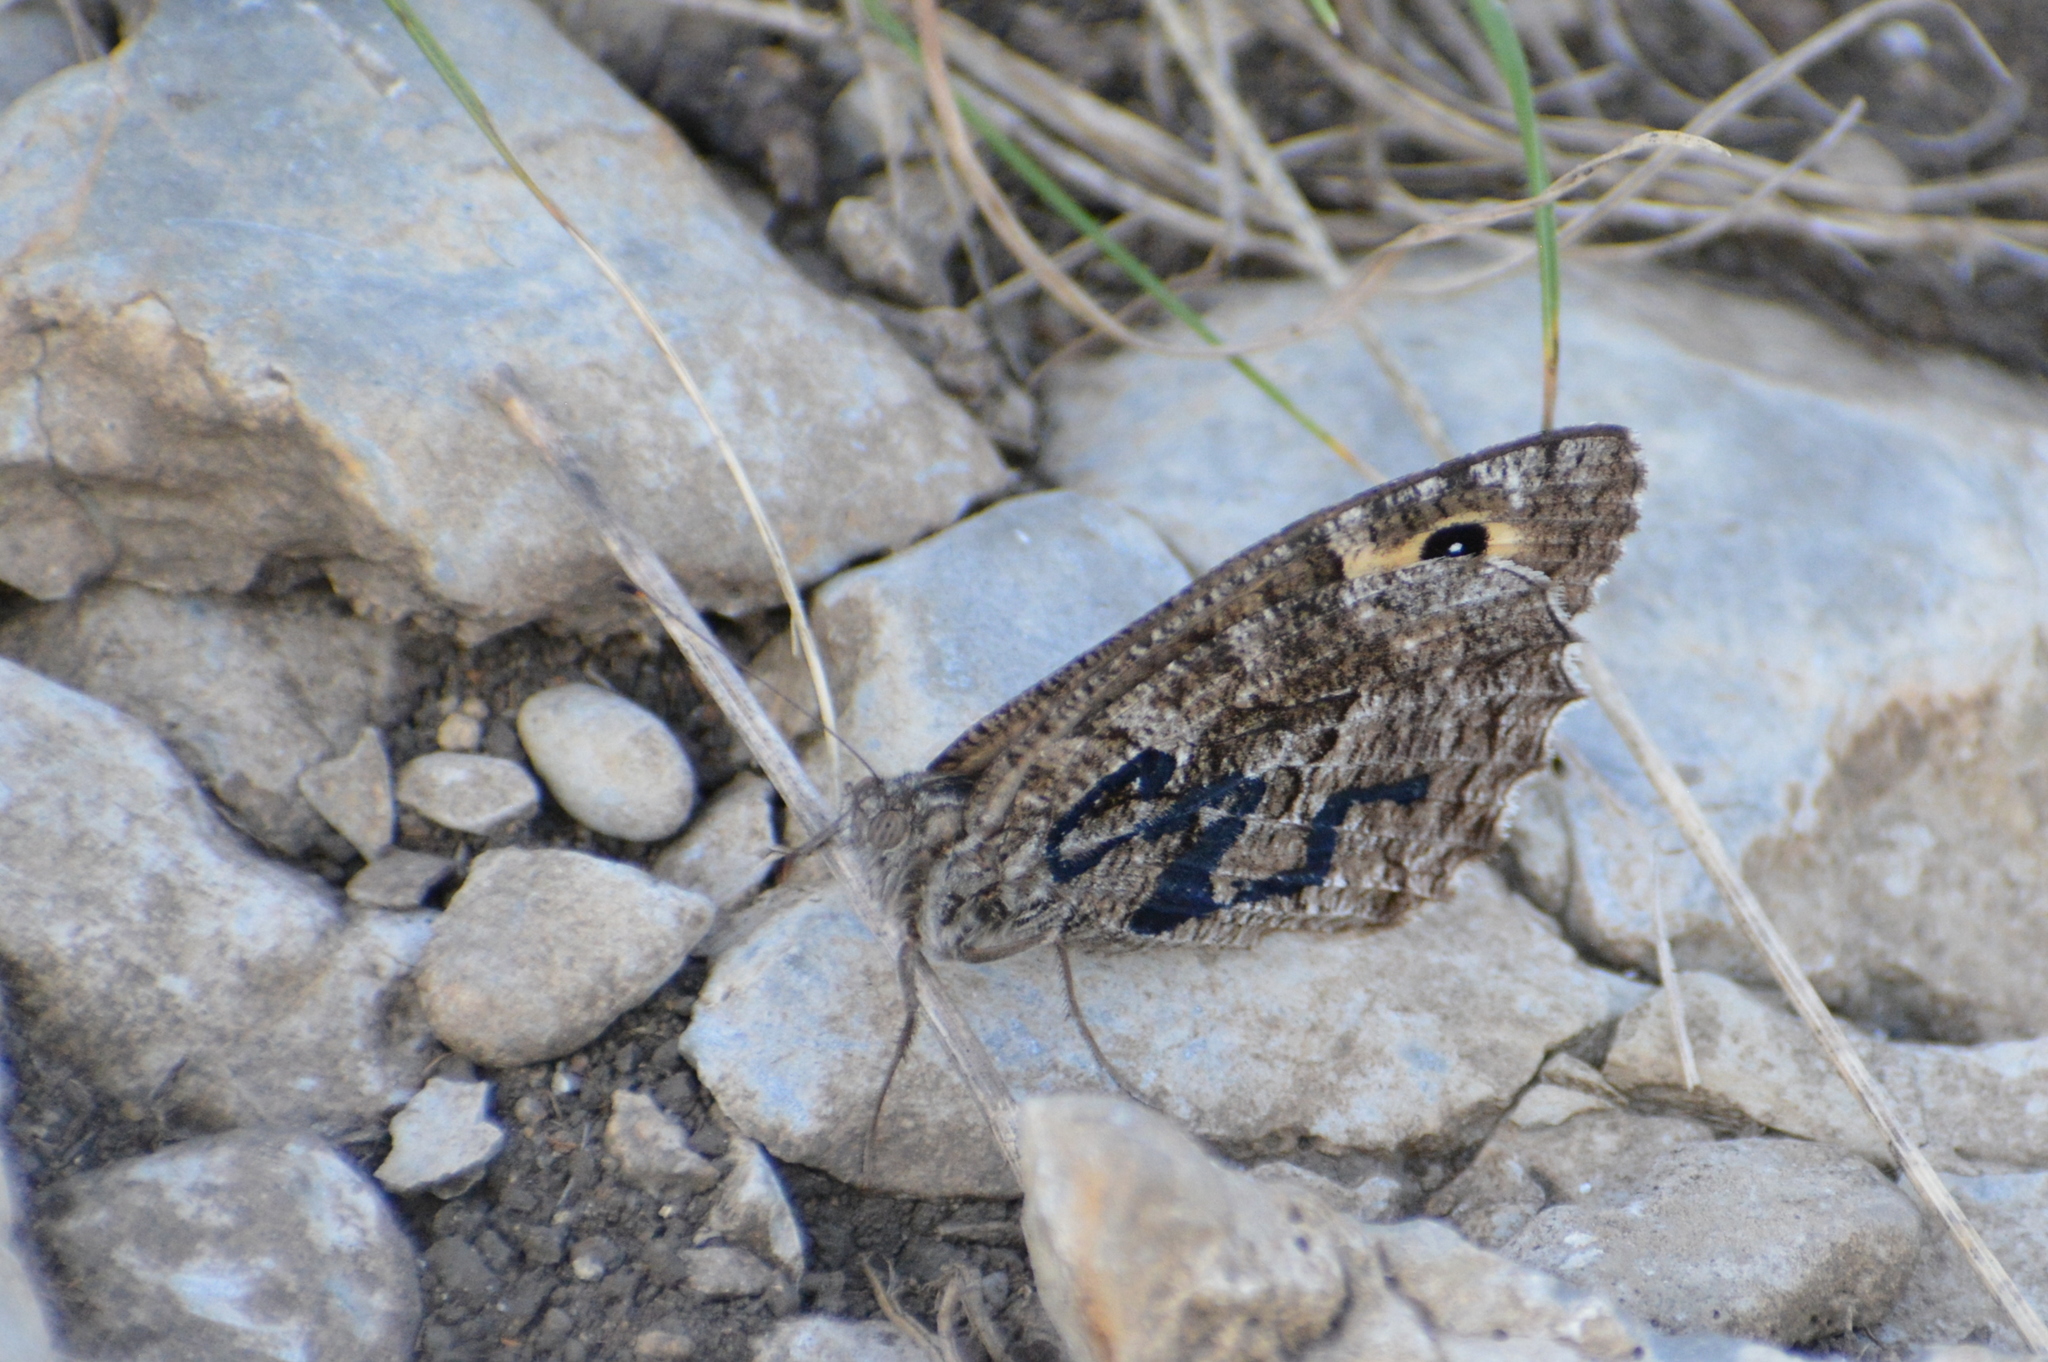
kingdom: Animalia
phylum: Arthropoda
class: Insecta
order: Lepidoptera
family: Nymphalidae
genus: Hipparchia
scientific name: Hipparchia semele
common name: Grayling
